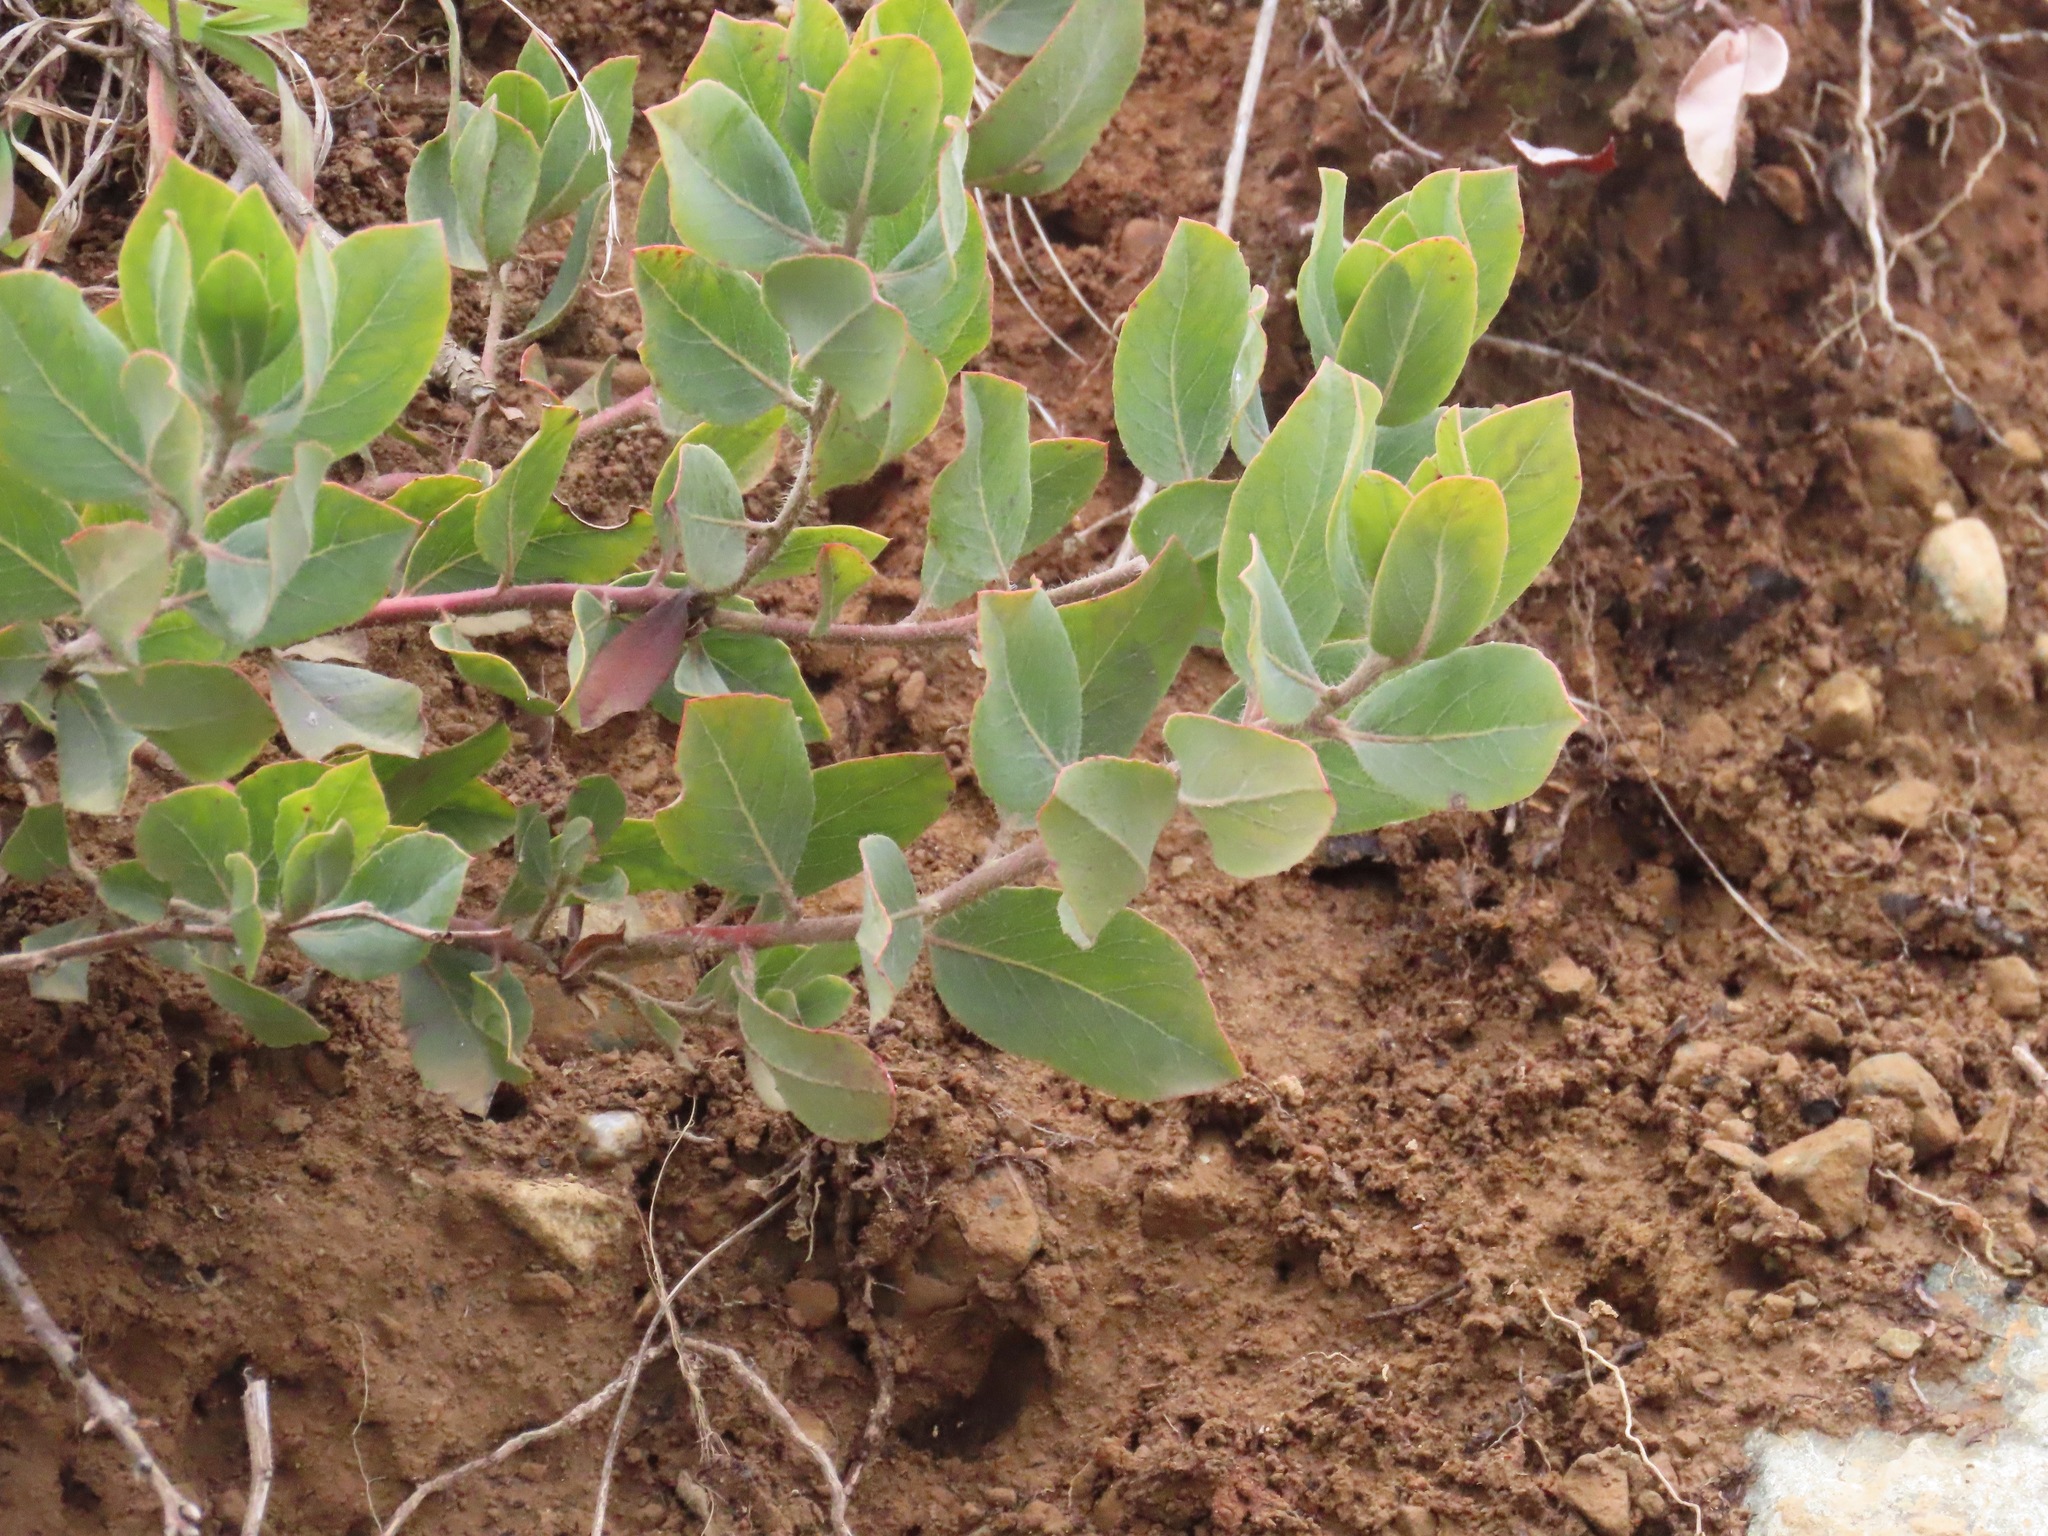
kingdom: Plantae
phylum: Tracheophyta
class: Magnoliopsida
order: Ericales
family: Ericaceae
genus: Arctostaphylos
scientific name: Arctostaphylos columbiana
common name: Bristly bearberry
